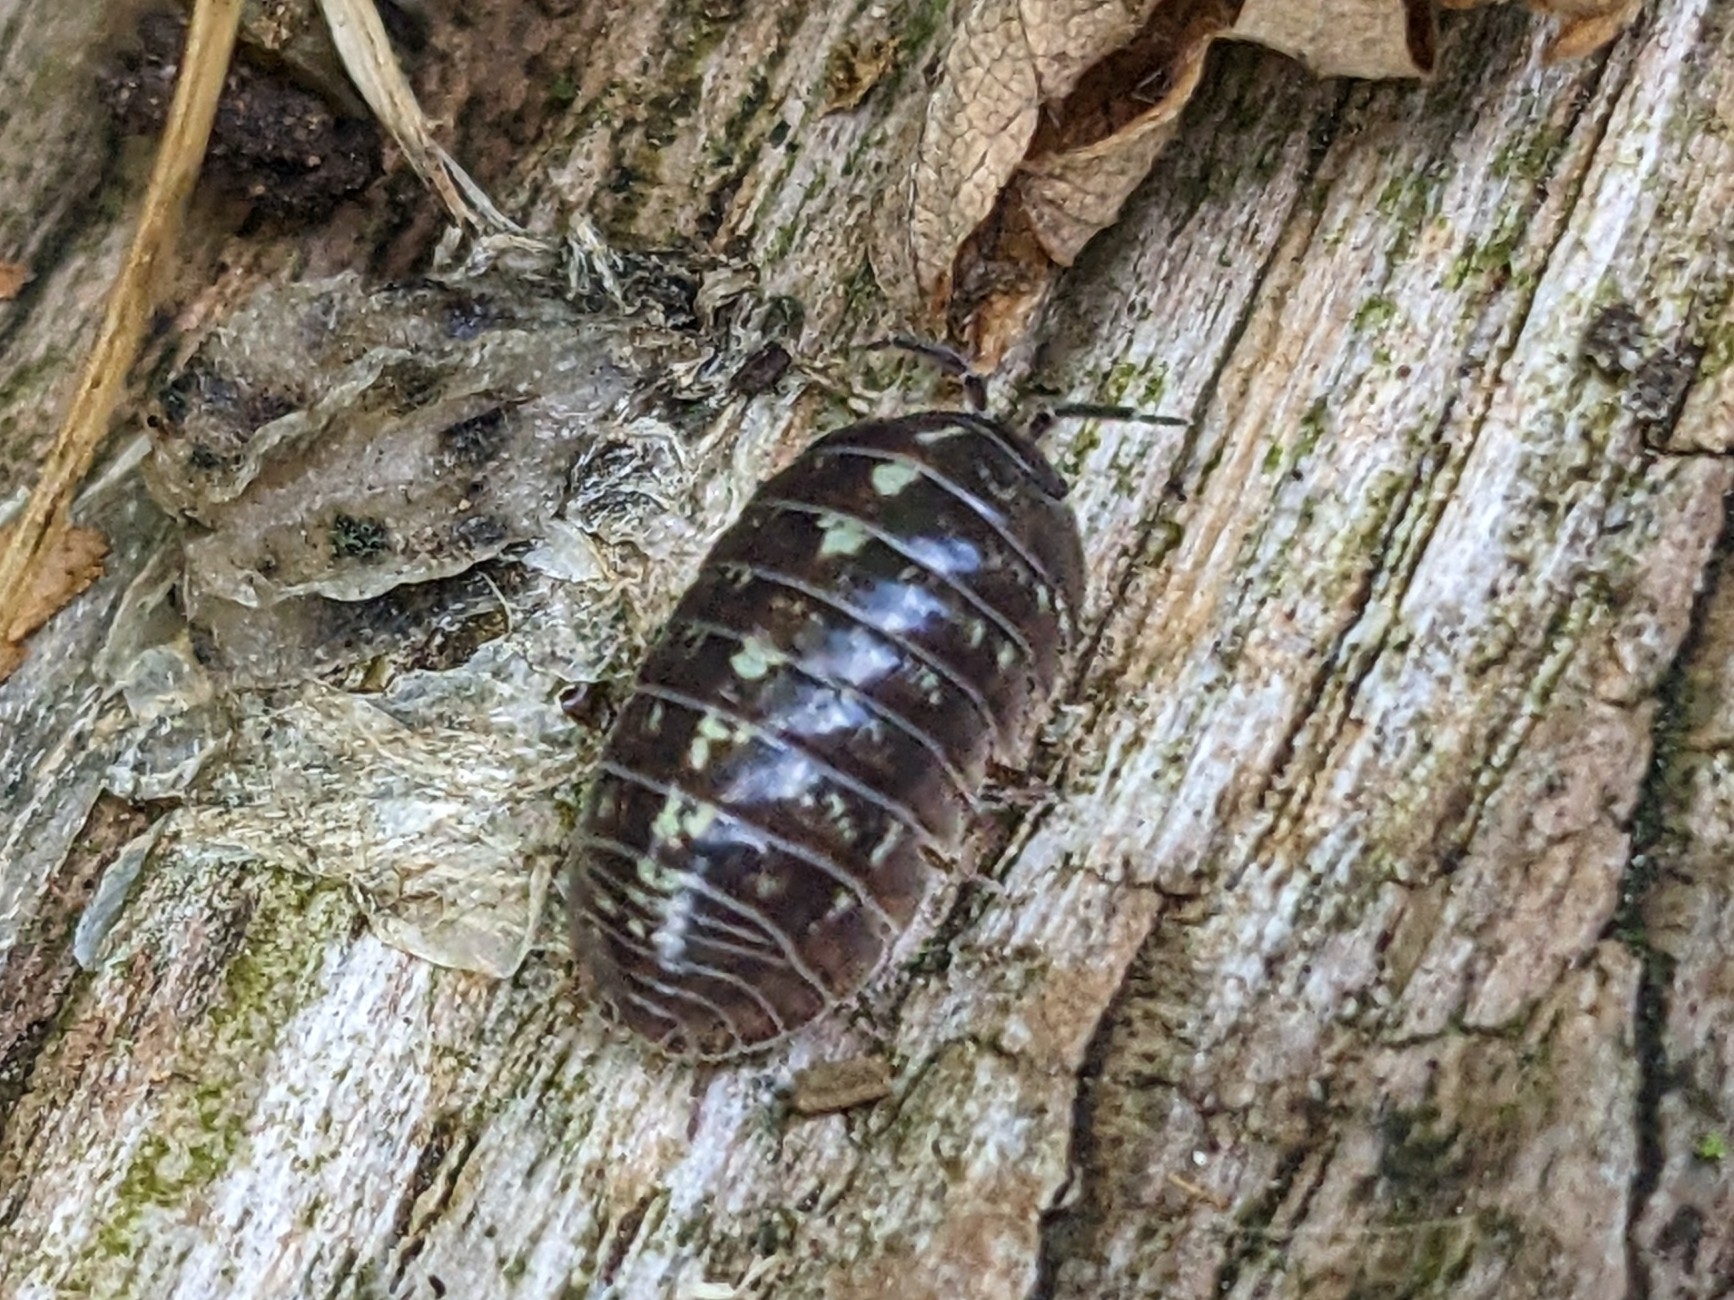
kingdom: Animalia
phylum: Arthropoda
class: Malacostraca
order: Isopoda
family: Armadillidiidae
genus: Armadillidium
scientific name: Armadillidium vulgare
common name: Common pill woodlouse
